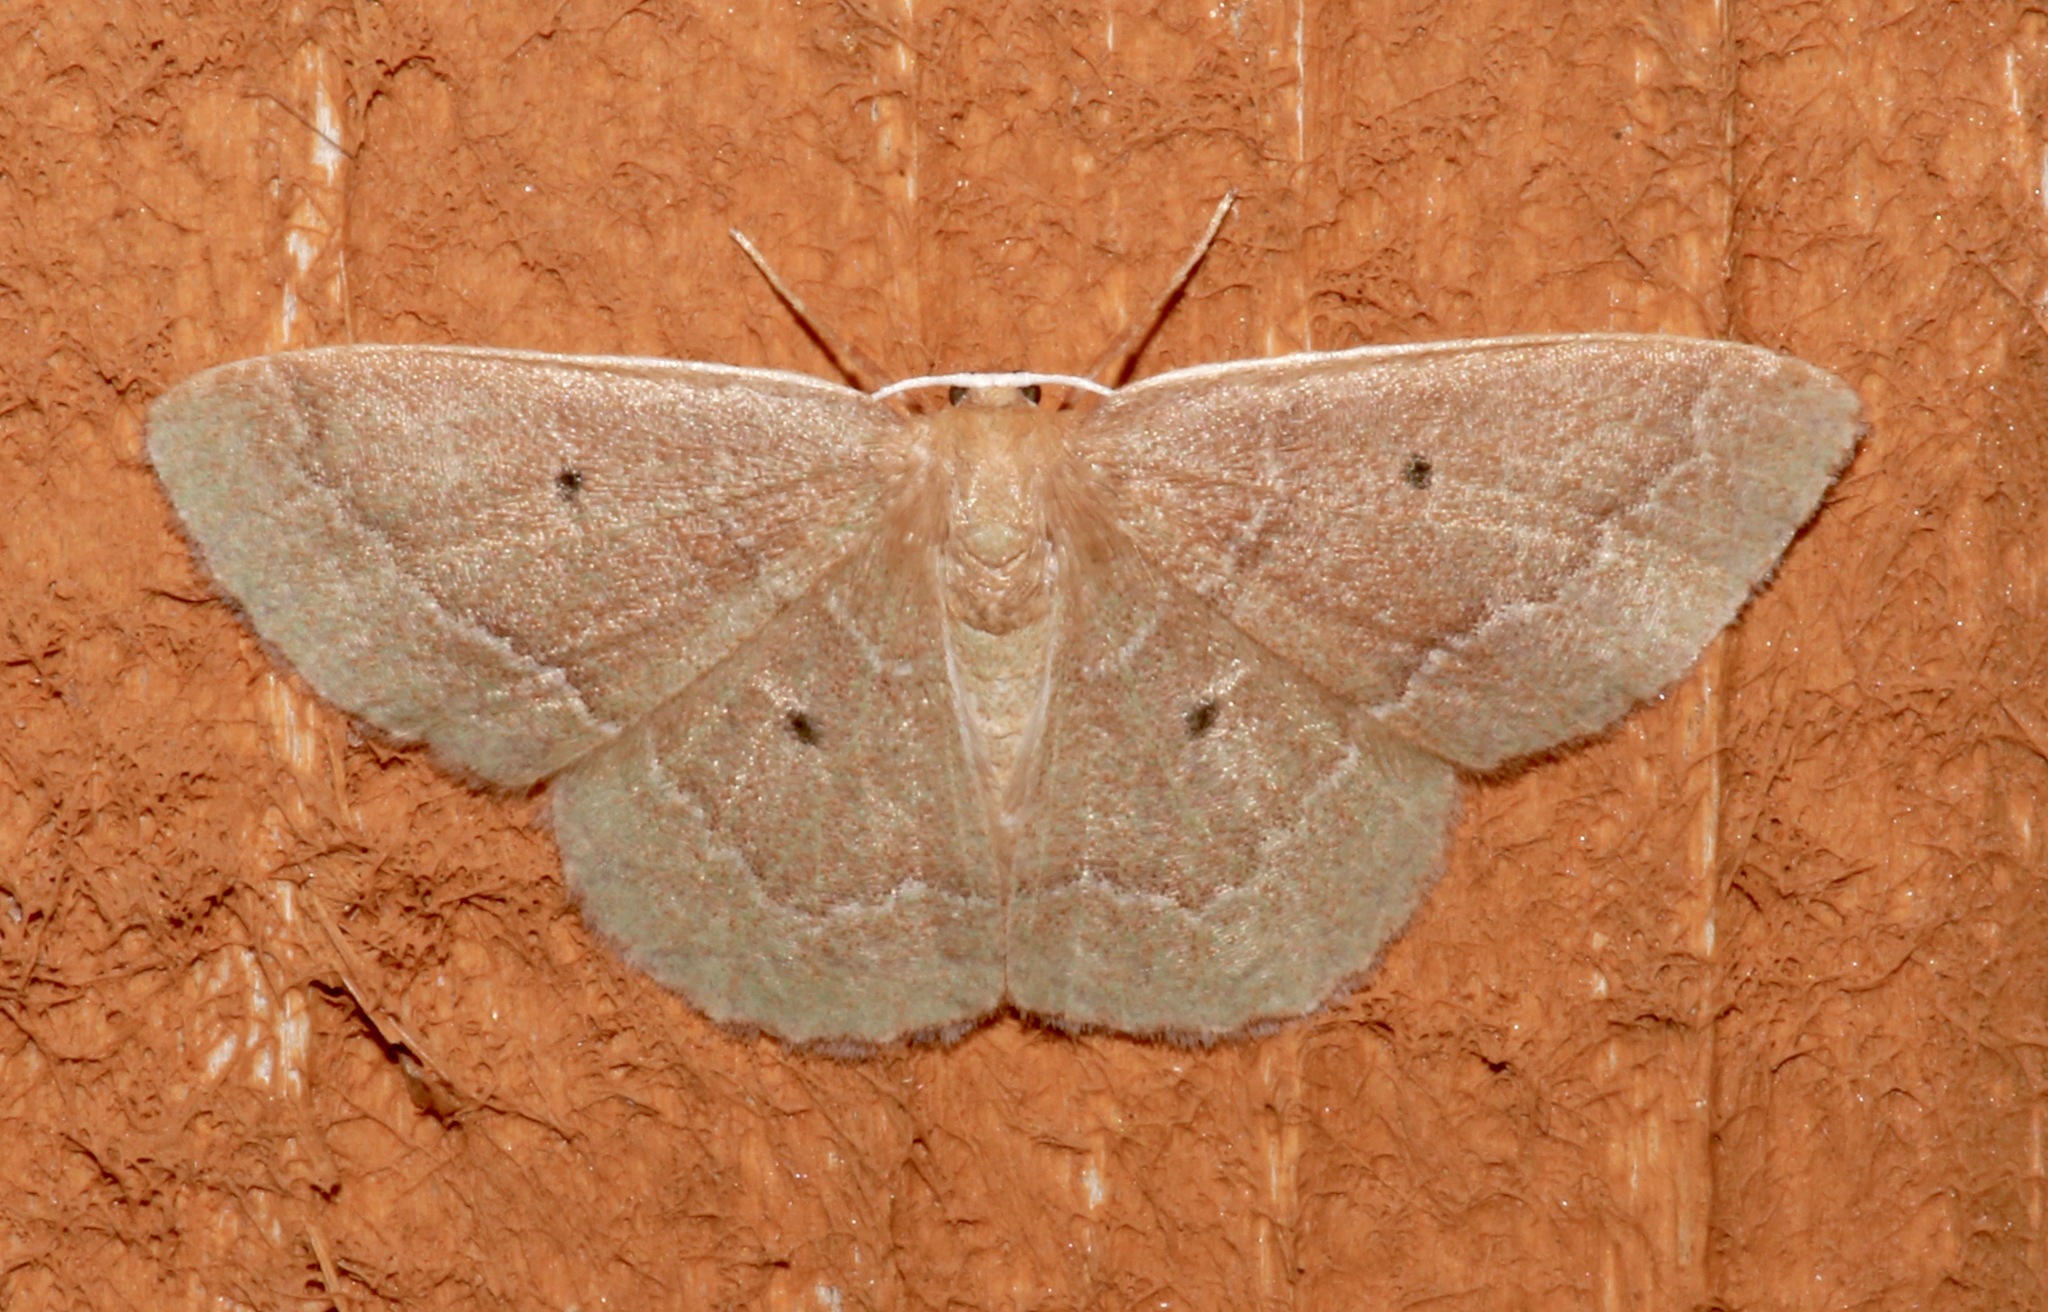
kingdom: Animalia
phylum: Arthropoda
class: Insecta
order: Lepidoptera
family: Geometridae
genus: Nemoria
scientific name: Nemoria elfa
